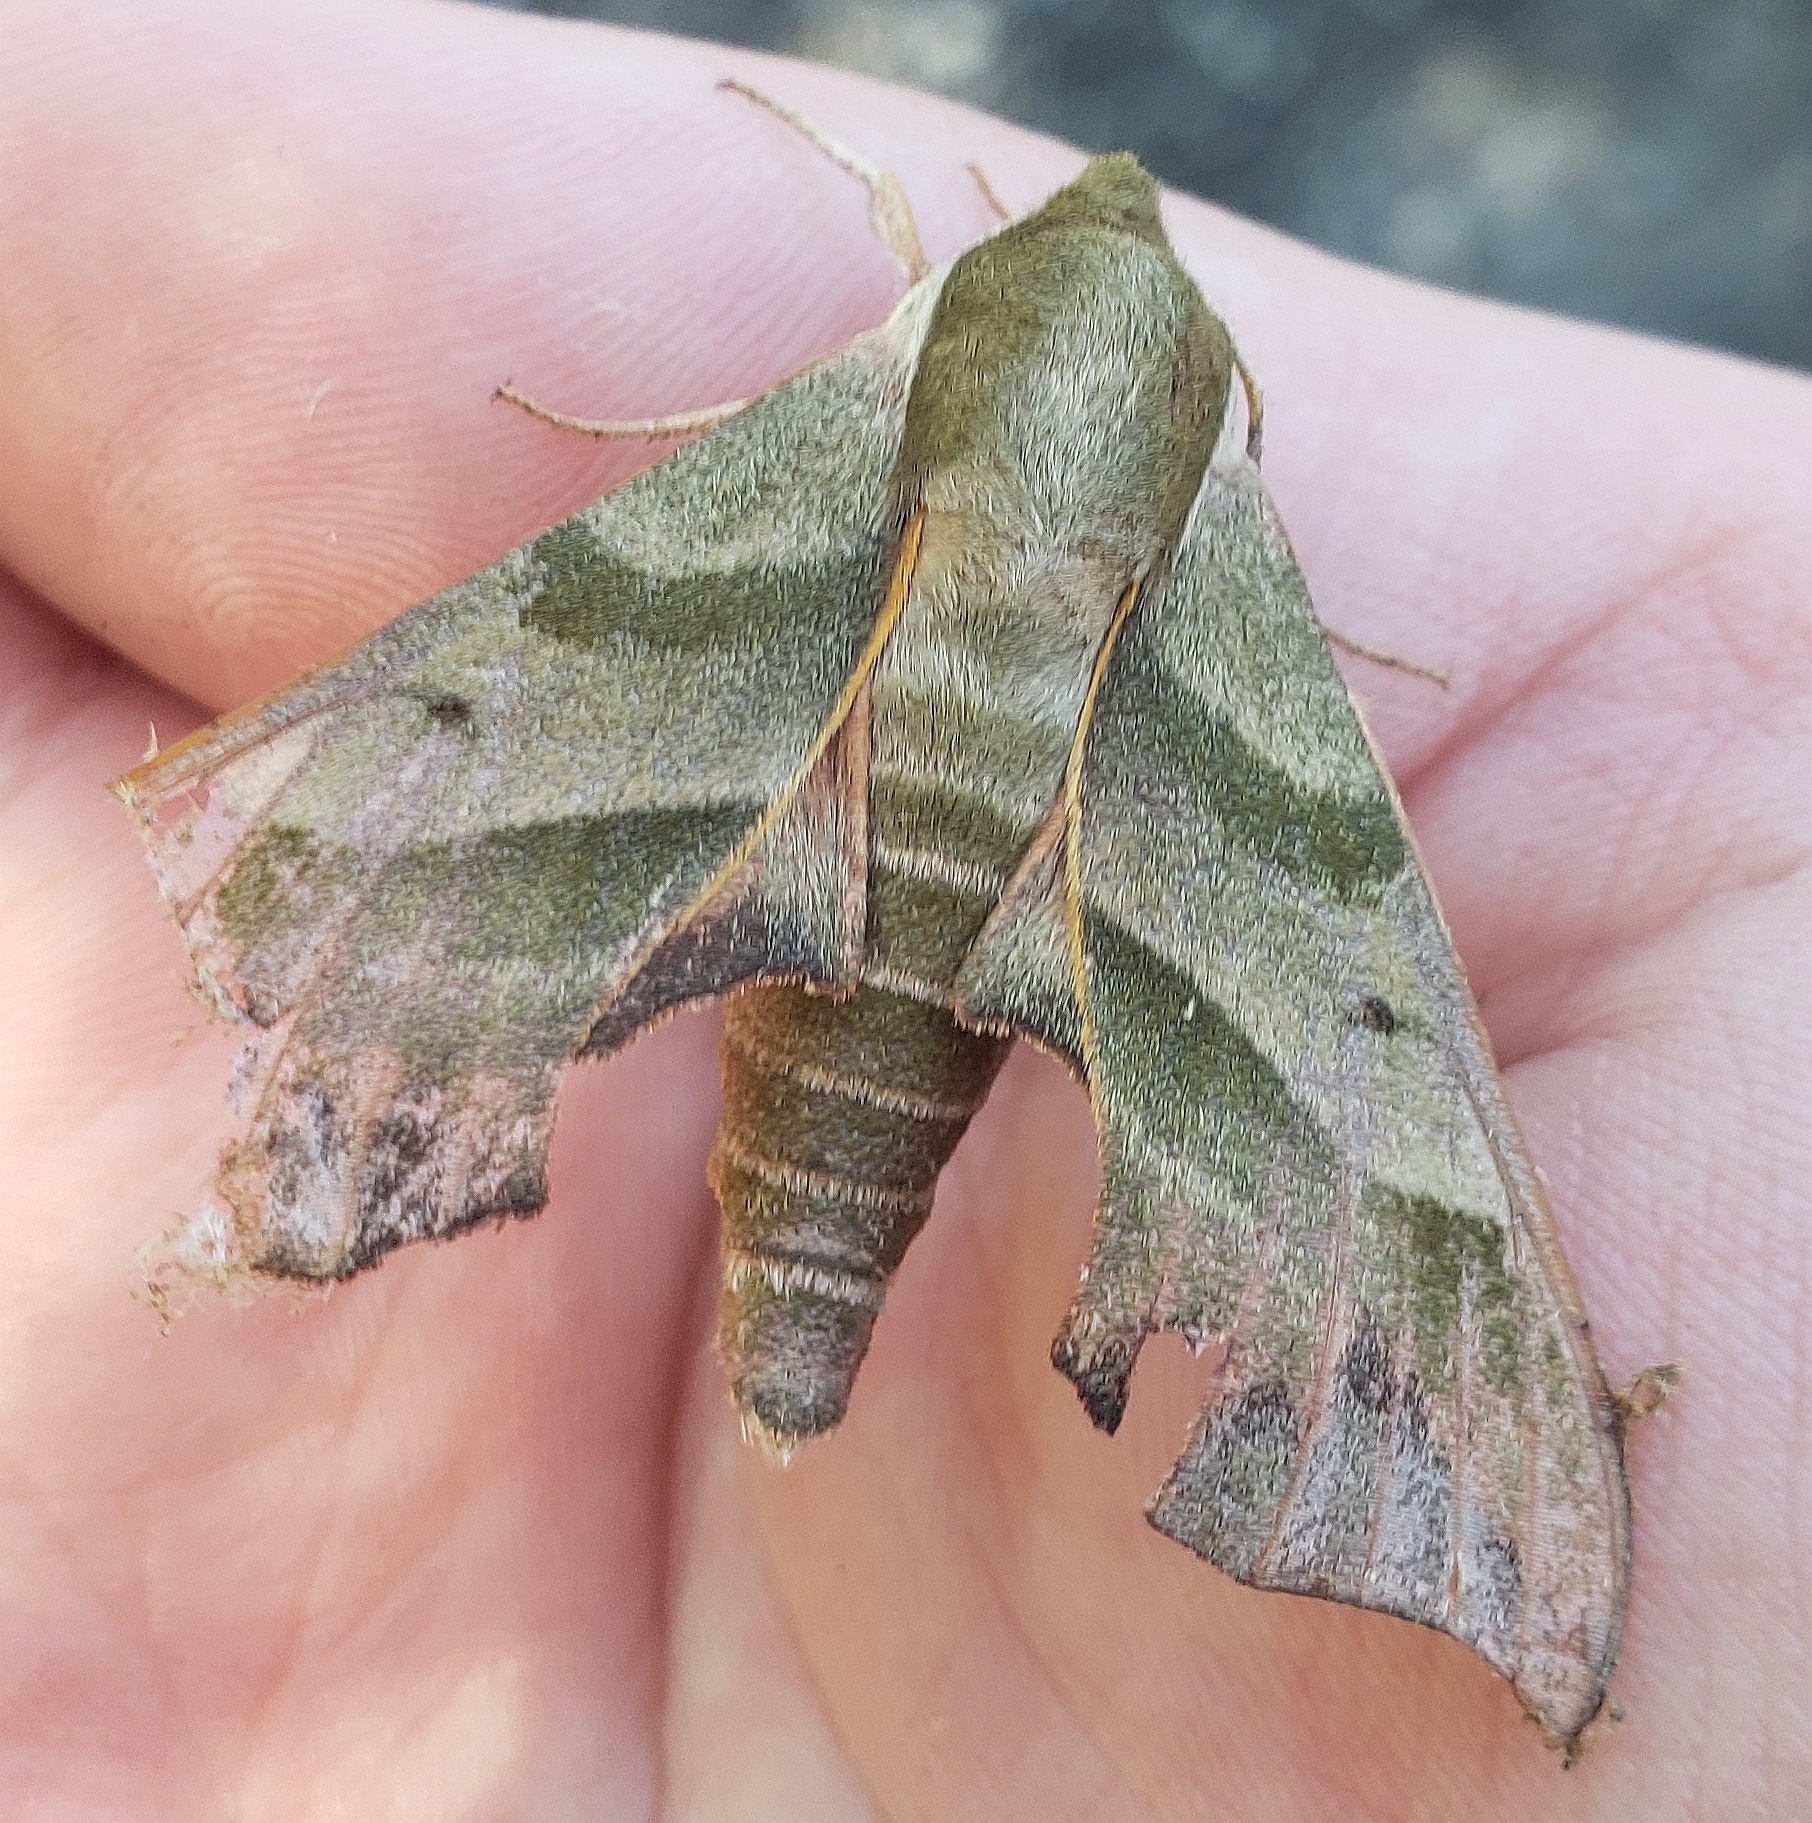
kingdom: Animalia
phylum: Arthropoda
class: Insecta
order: Lepidoptera
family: Sphingidae
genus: Darapsa
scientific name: Darapsa myron
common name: Hog sphinx
